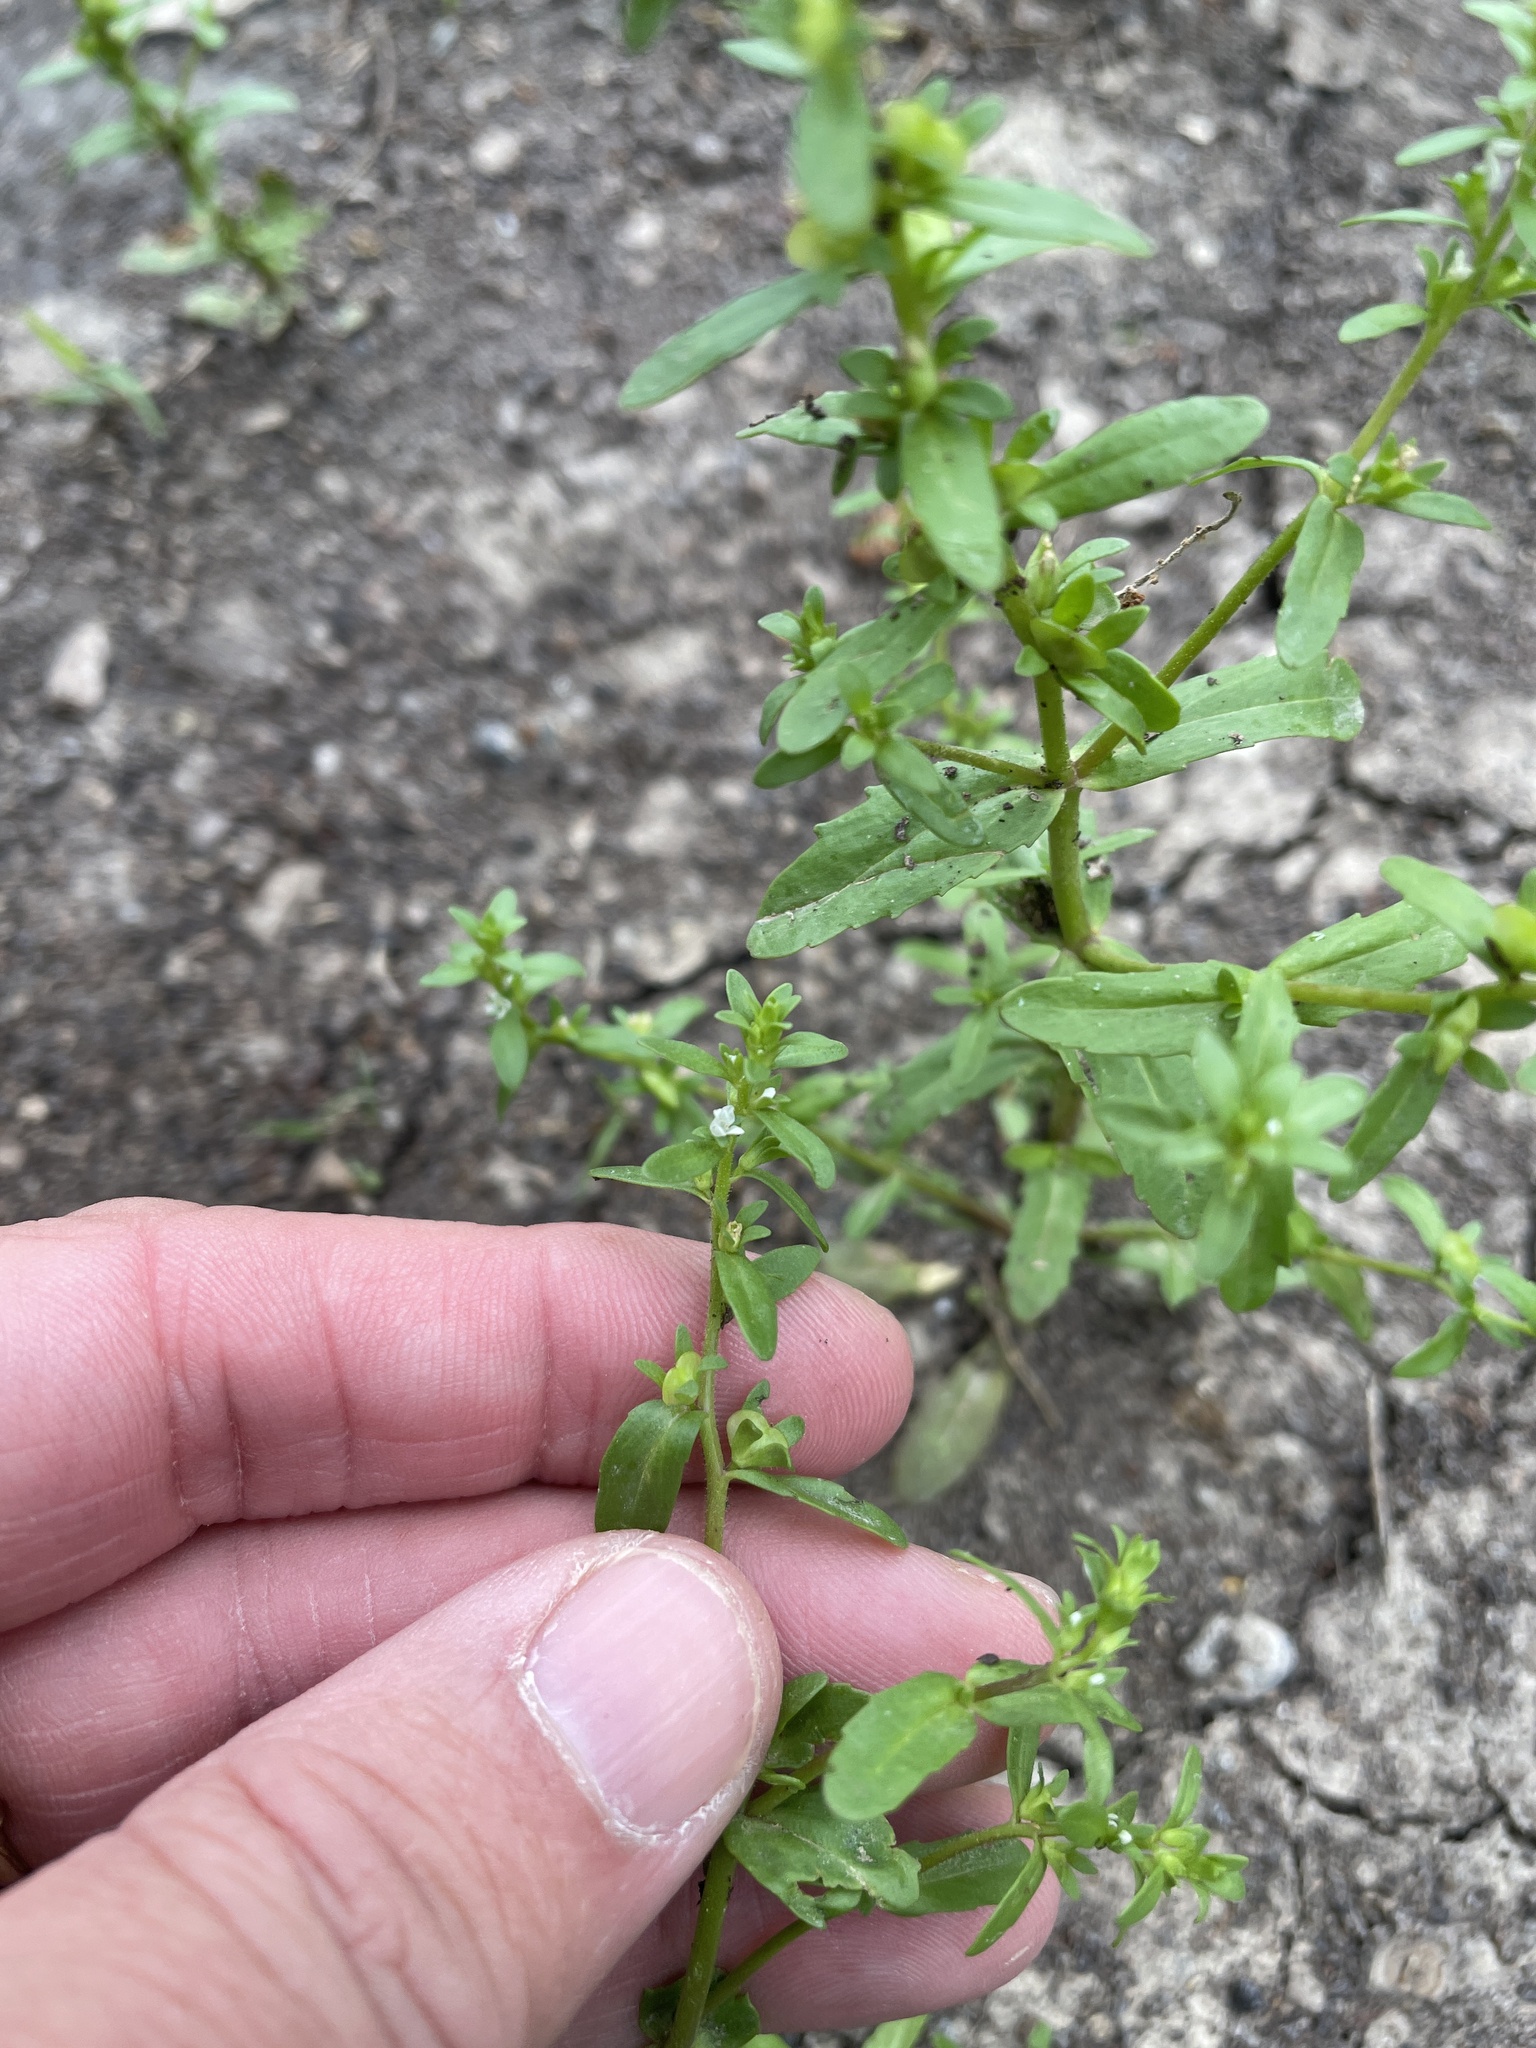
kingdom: Plantae
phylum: Tracheophyta
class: Magnoliopsida
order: Lamiales
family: Plantaginaceae
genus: Veronica
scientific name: Veronica peregrina
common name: Neckweed
